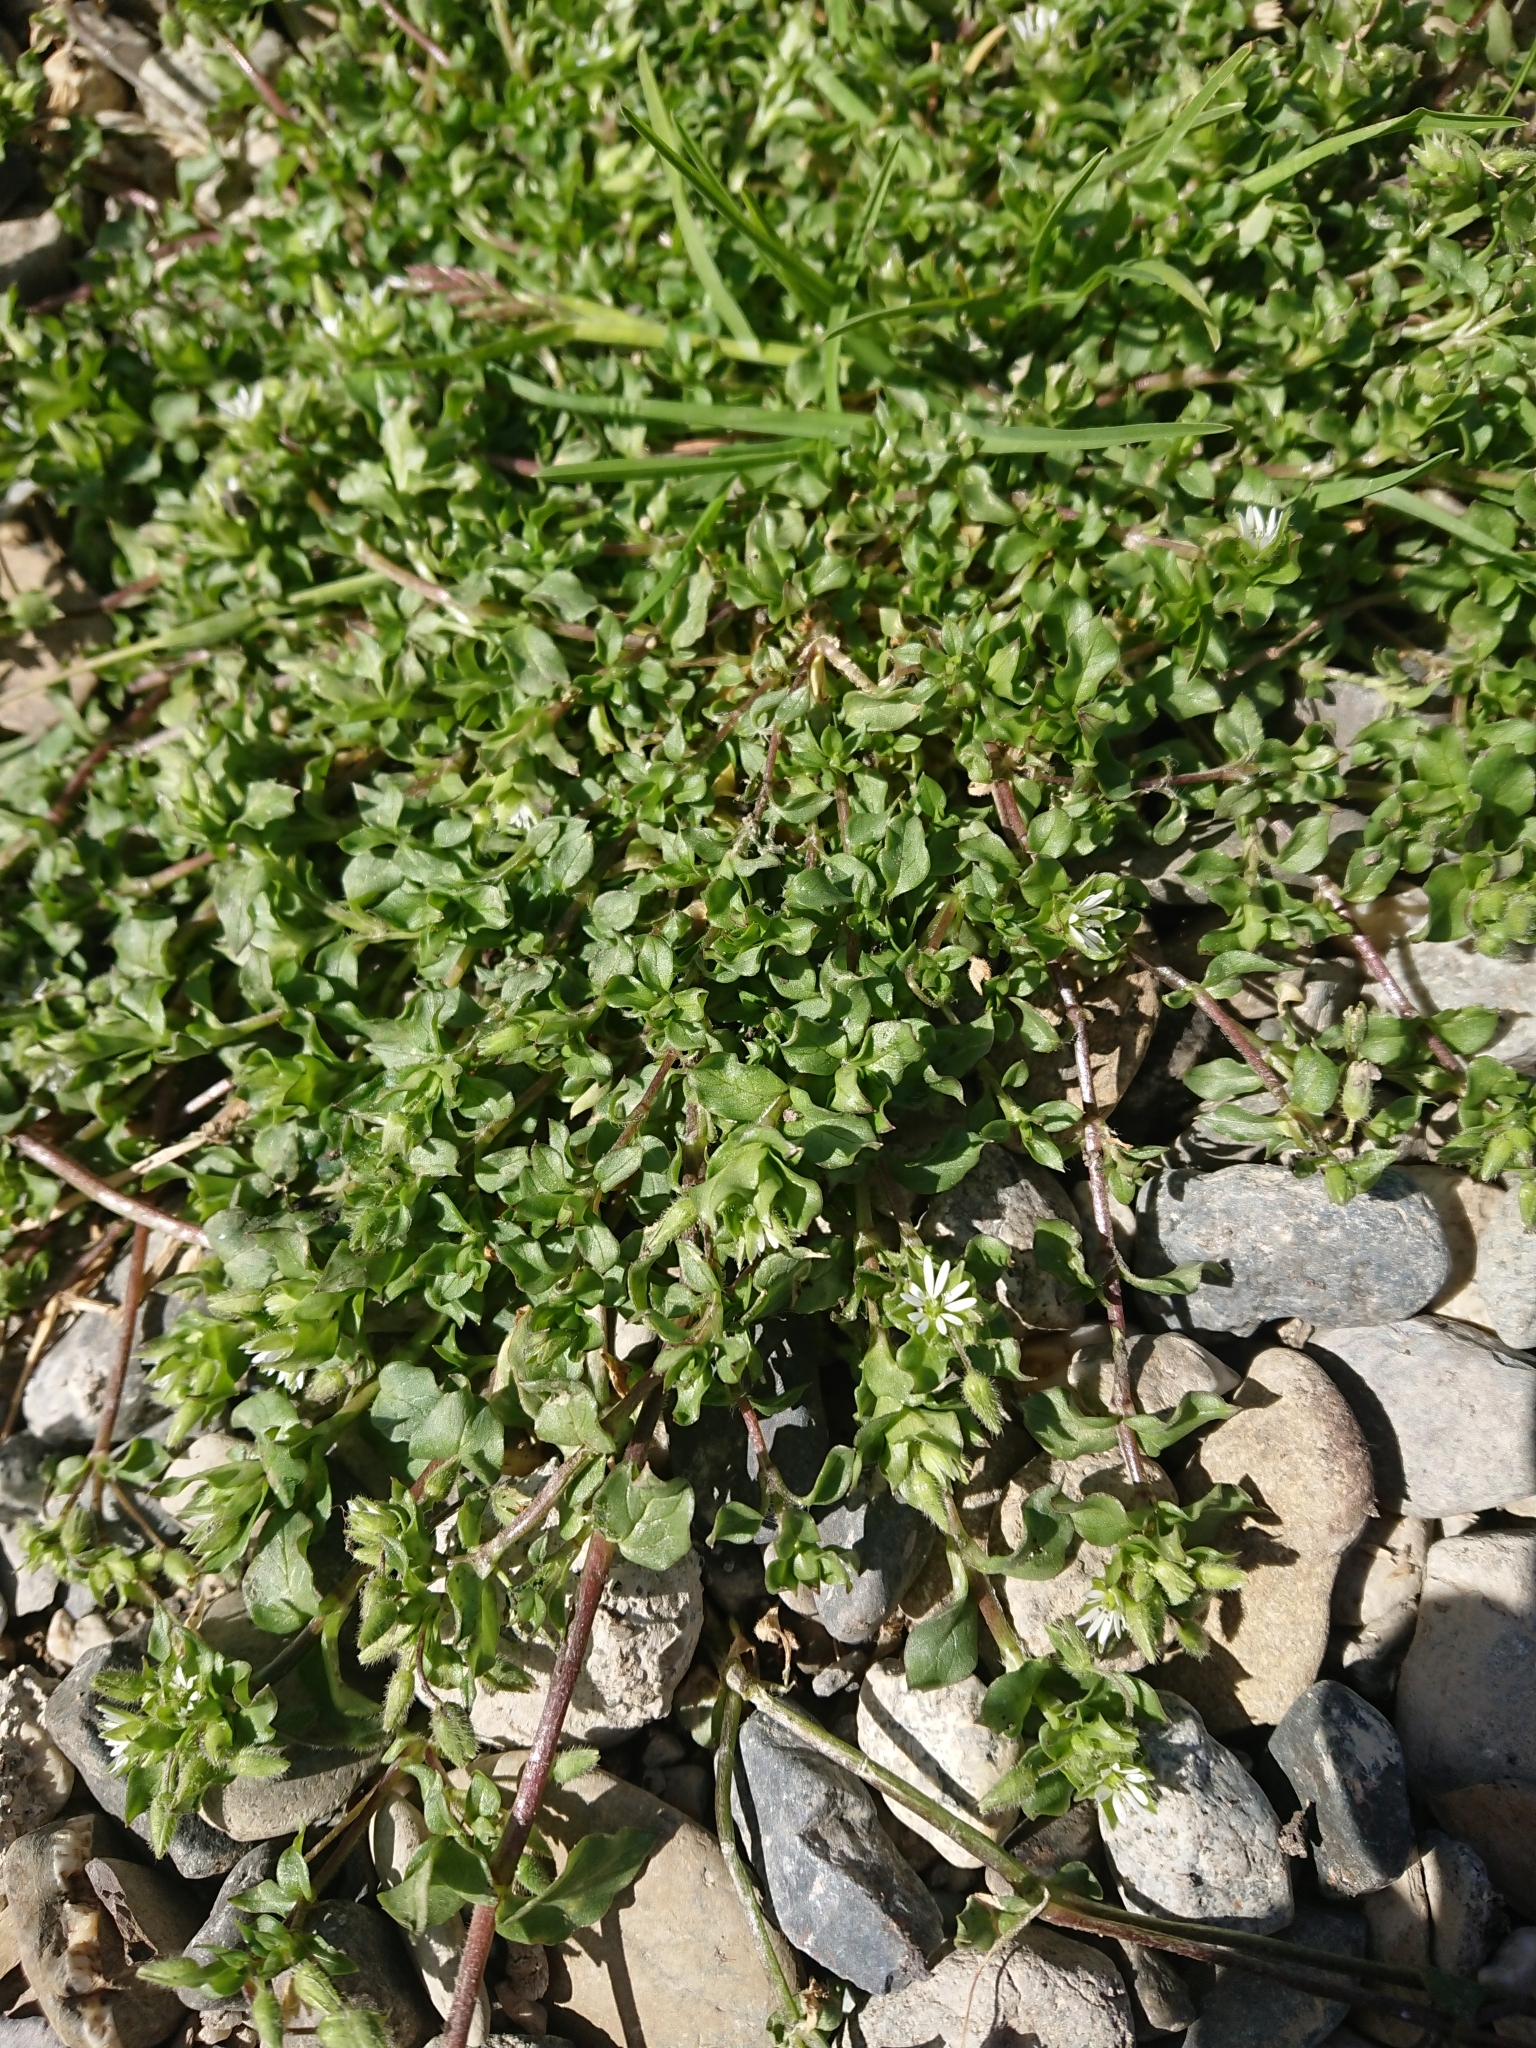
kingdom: Plantae
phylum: Tracheophyta
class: Magnoliopsida
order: Caryophyllales
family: Caryophyllaceae
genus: Stellaria
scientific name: Stellaria media
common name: Common chickweed
